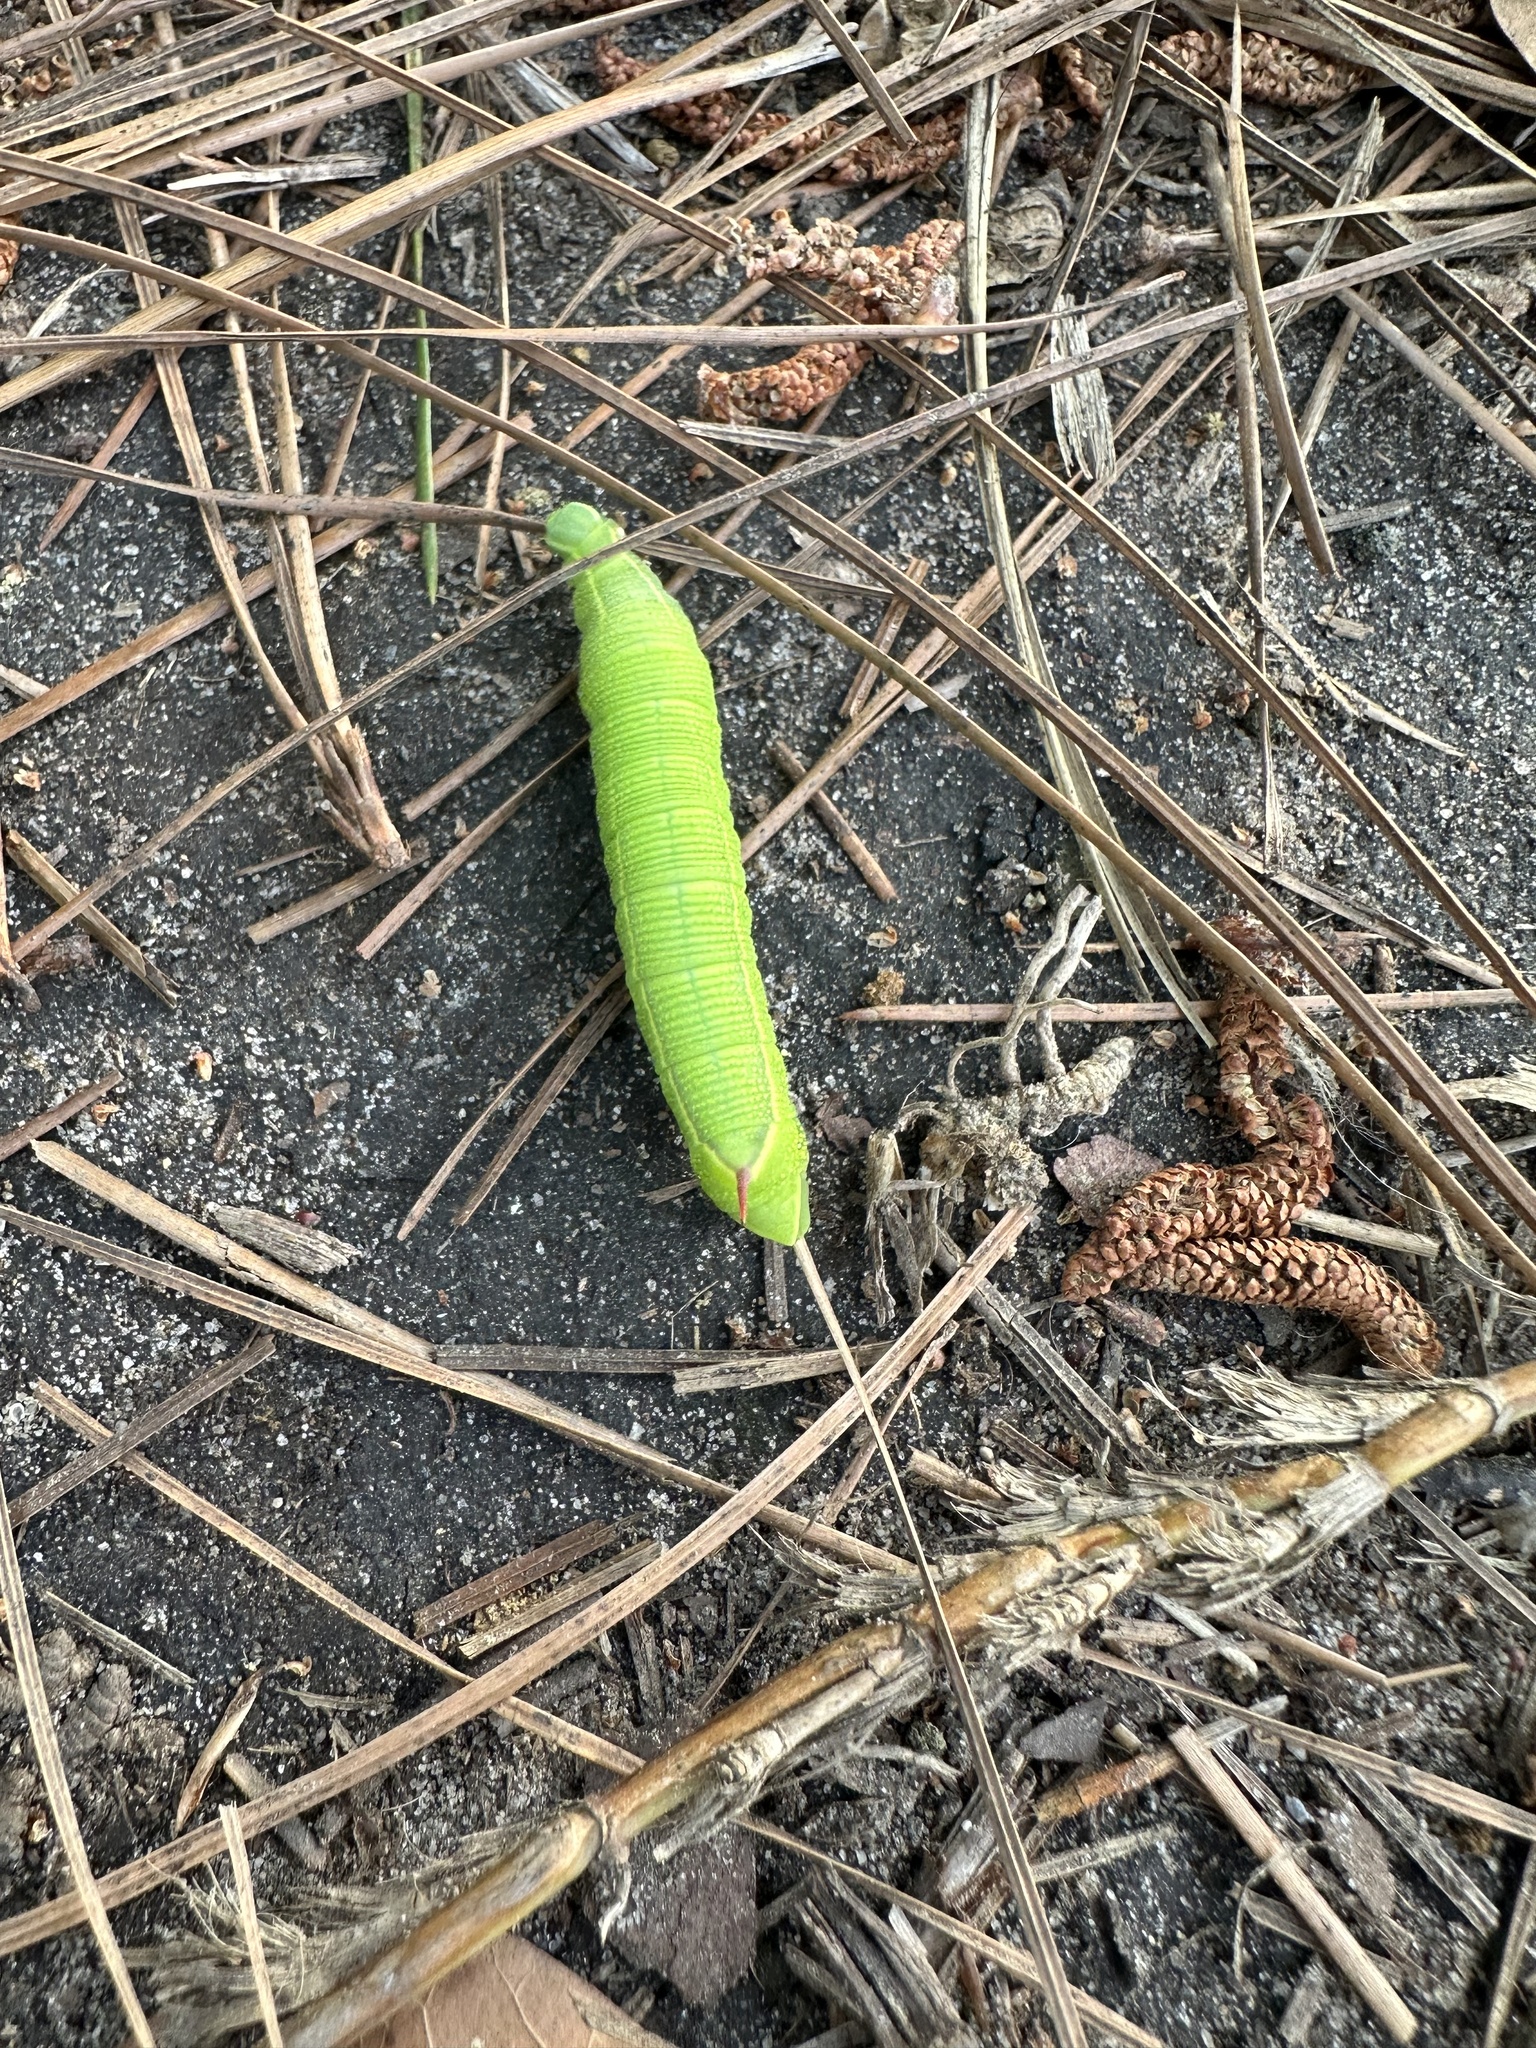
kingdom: Animalia
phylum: Arthropoda
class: Insecta
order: Lepidoptera
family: Sphingidae
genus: Deidamia
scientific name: Deidamia inscriptum
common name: Lettered sphinx
